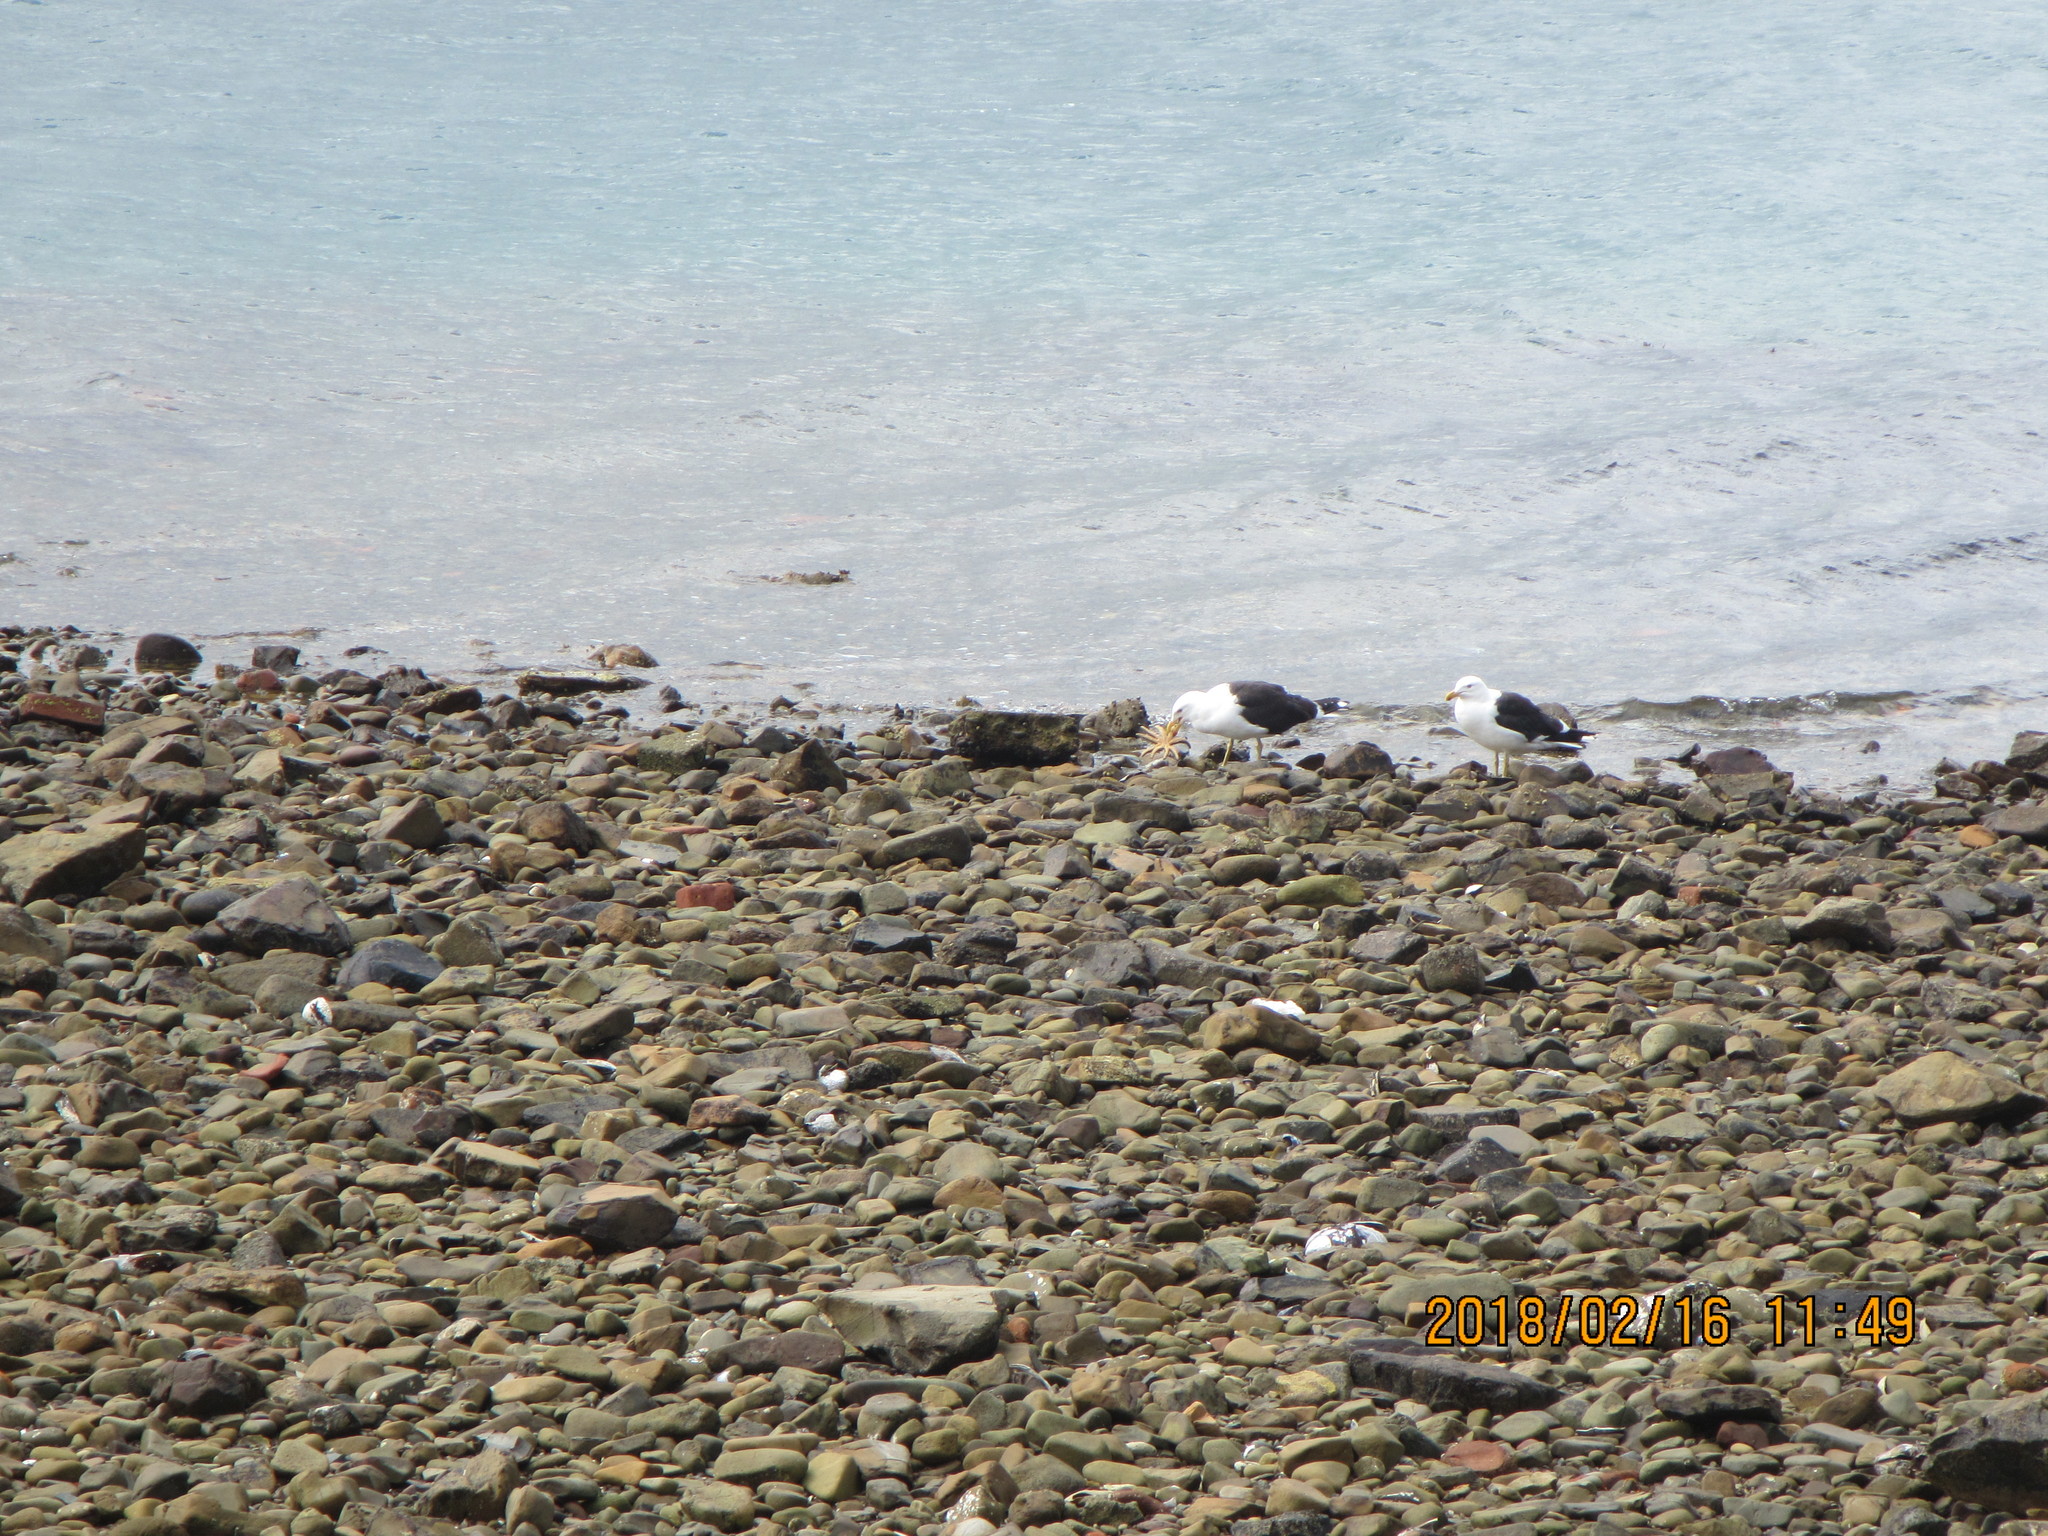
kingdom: Animalia
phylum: Chordata
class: Aves
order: Charadriiformes
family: Laridae
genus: Larus
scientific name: Larus dominicanus
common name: Kelp gull
